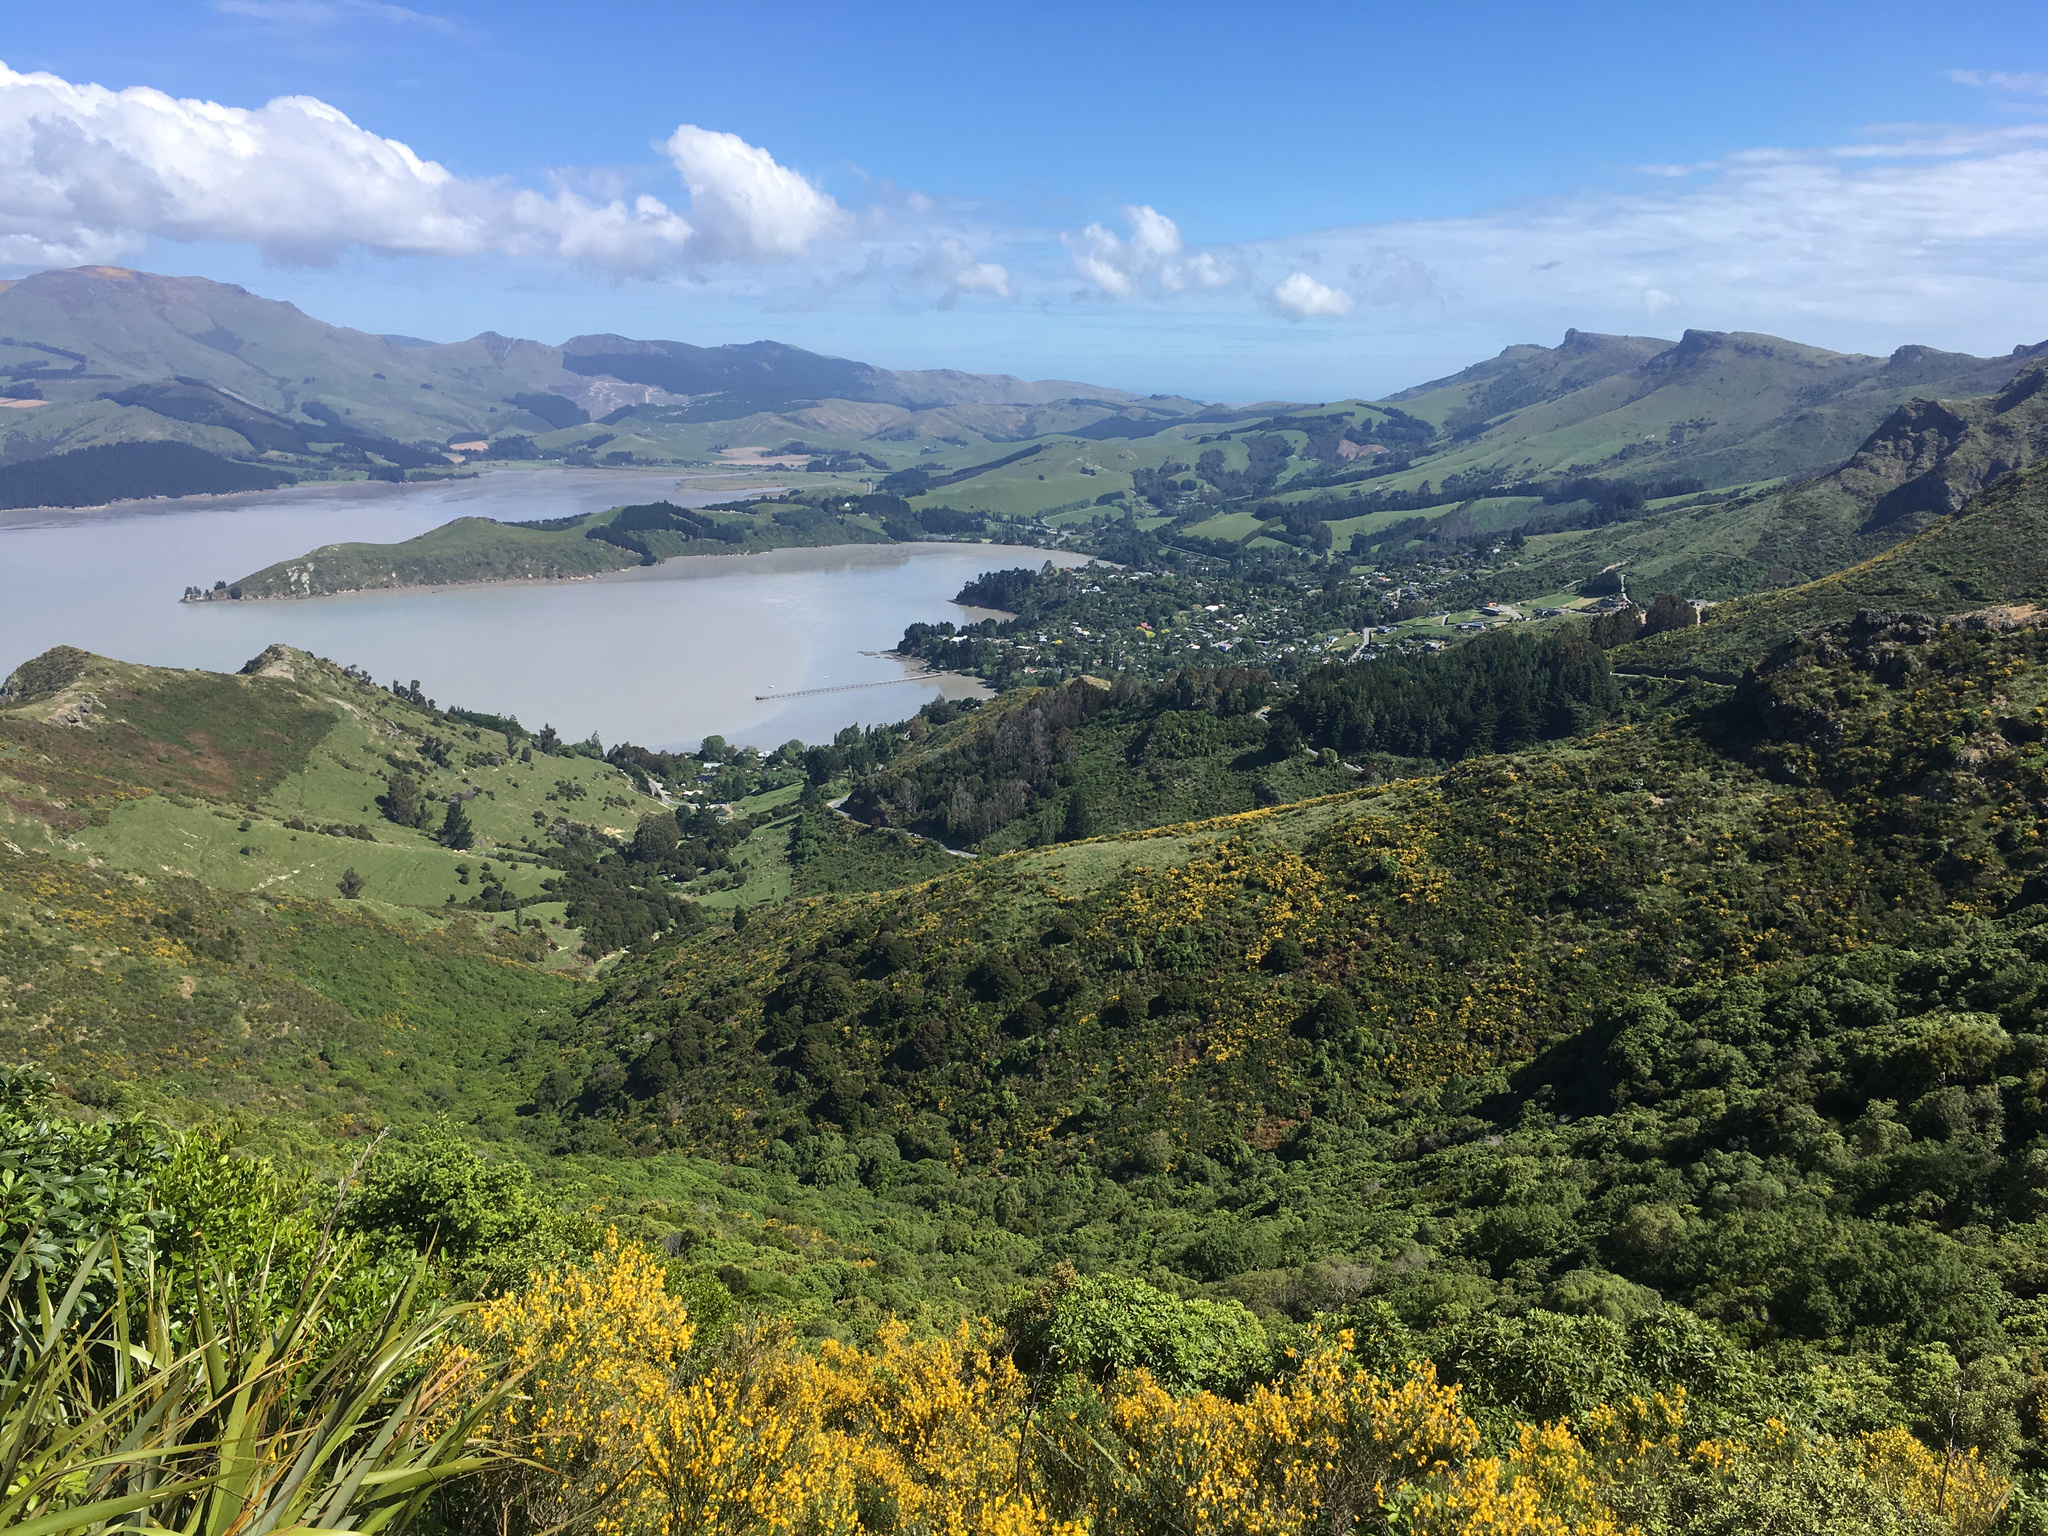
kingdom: Plantae
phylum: Tracheophyta
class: Magnoliopsida
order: Fabales
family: Fabaceae
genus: Cytisus
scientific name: Cytisus scoparius
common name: Scotch broom
